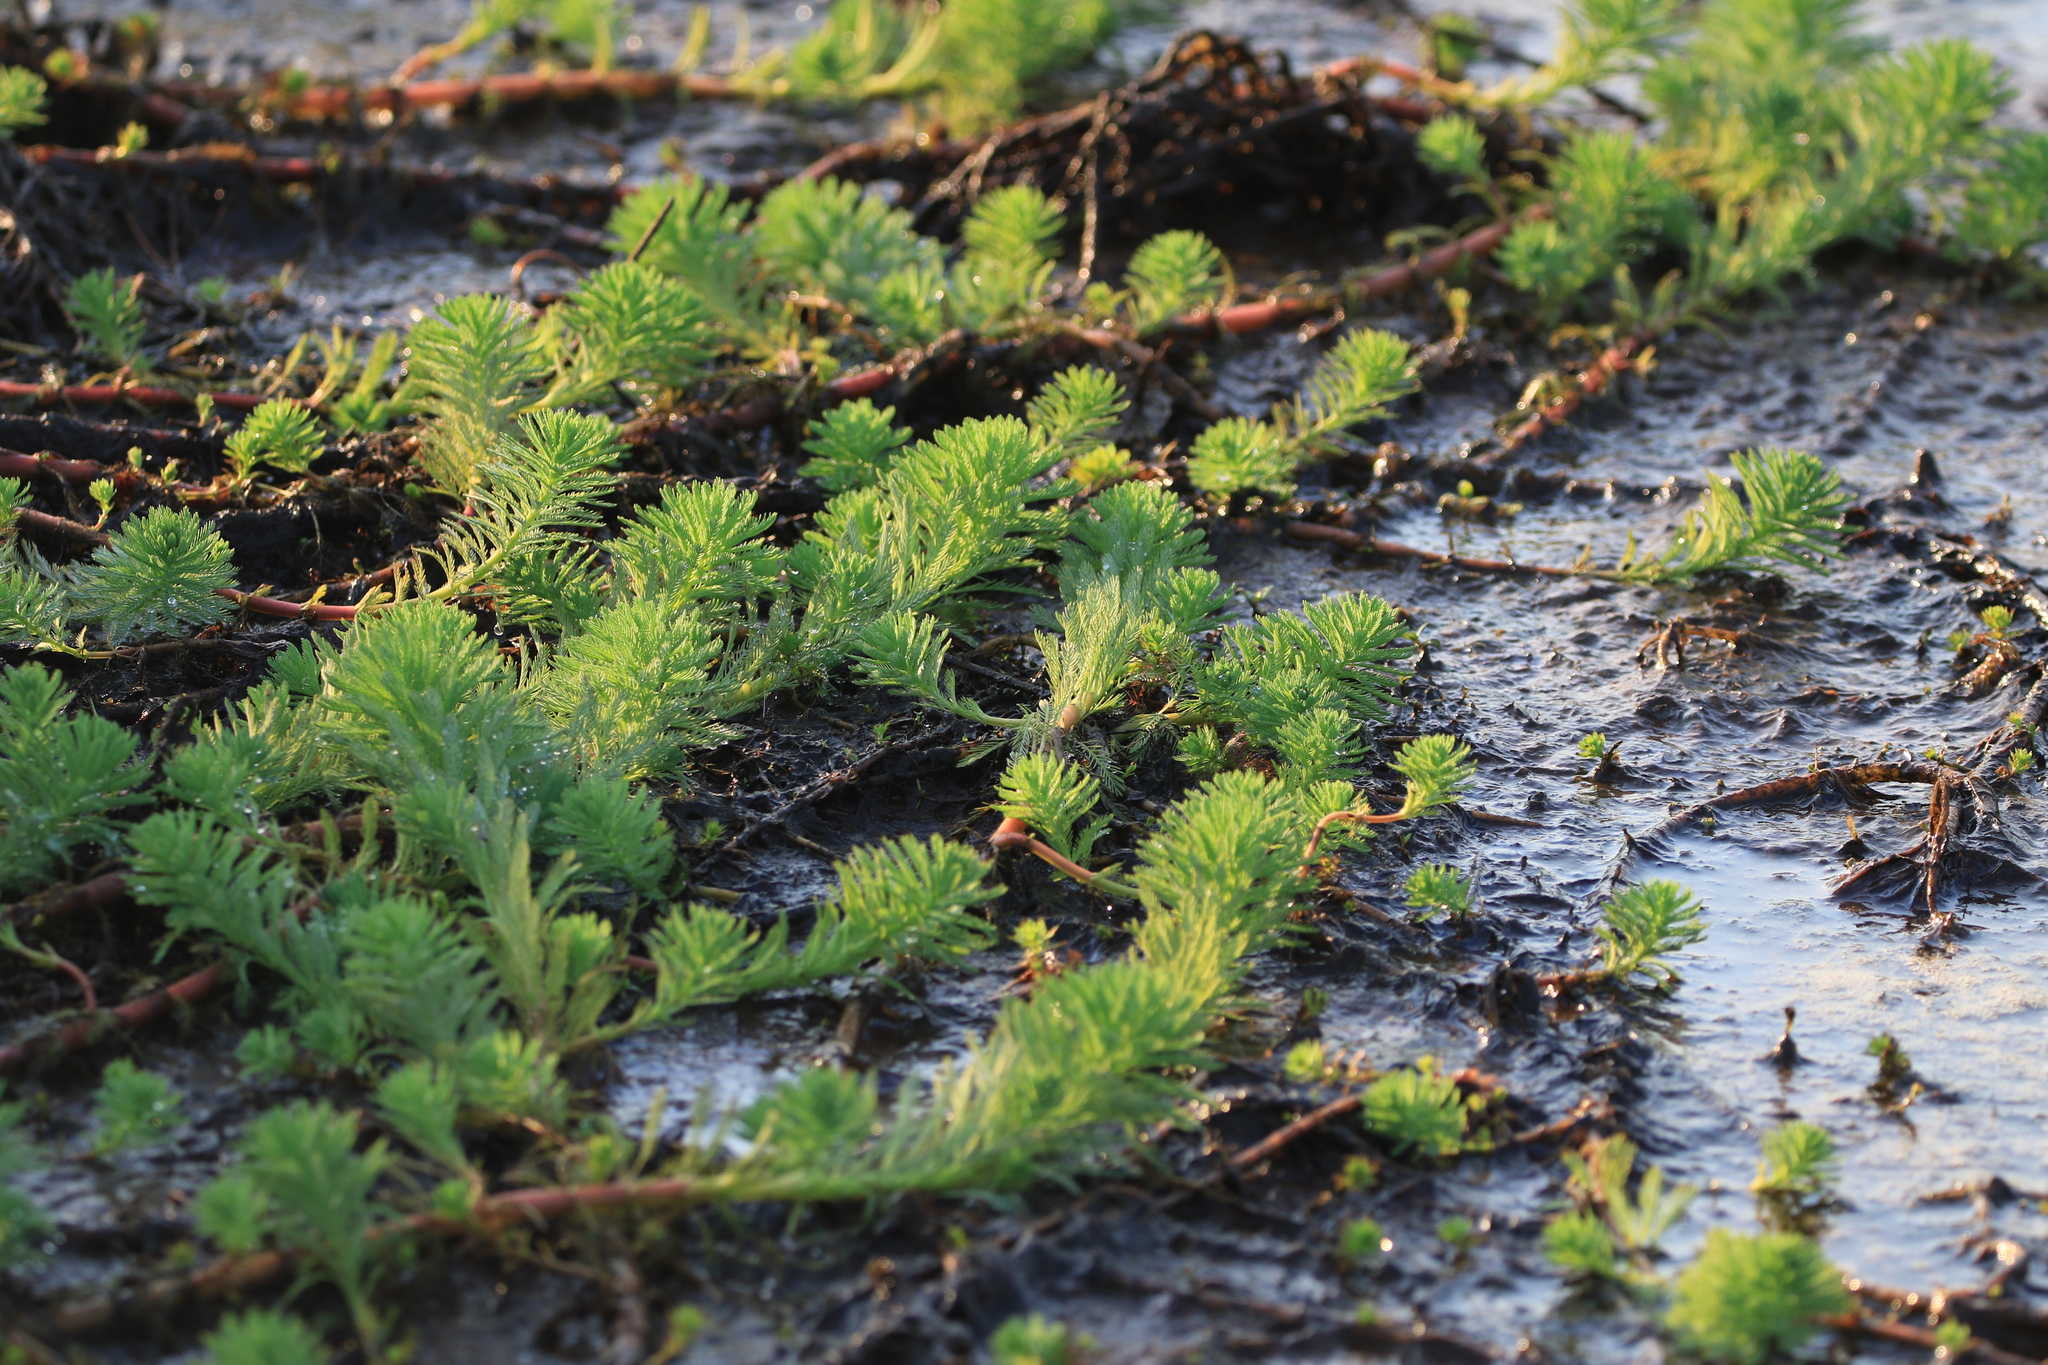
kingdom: Plantae
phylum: Tracheophyta
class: Magnoliopsida
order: Saxifragales
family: Haloragaceae
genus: Myriophyllum
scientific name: Myriophyllum aquaticum
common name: Parrot's feather
